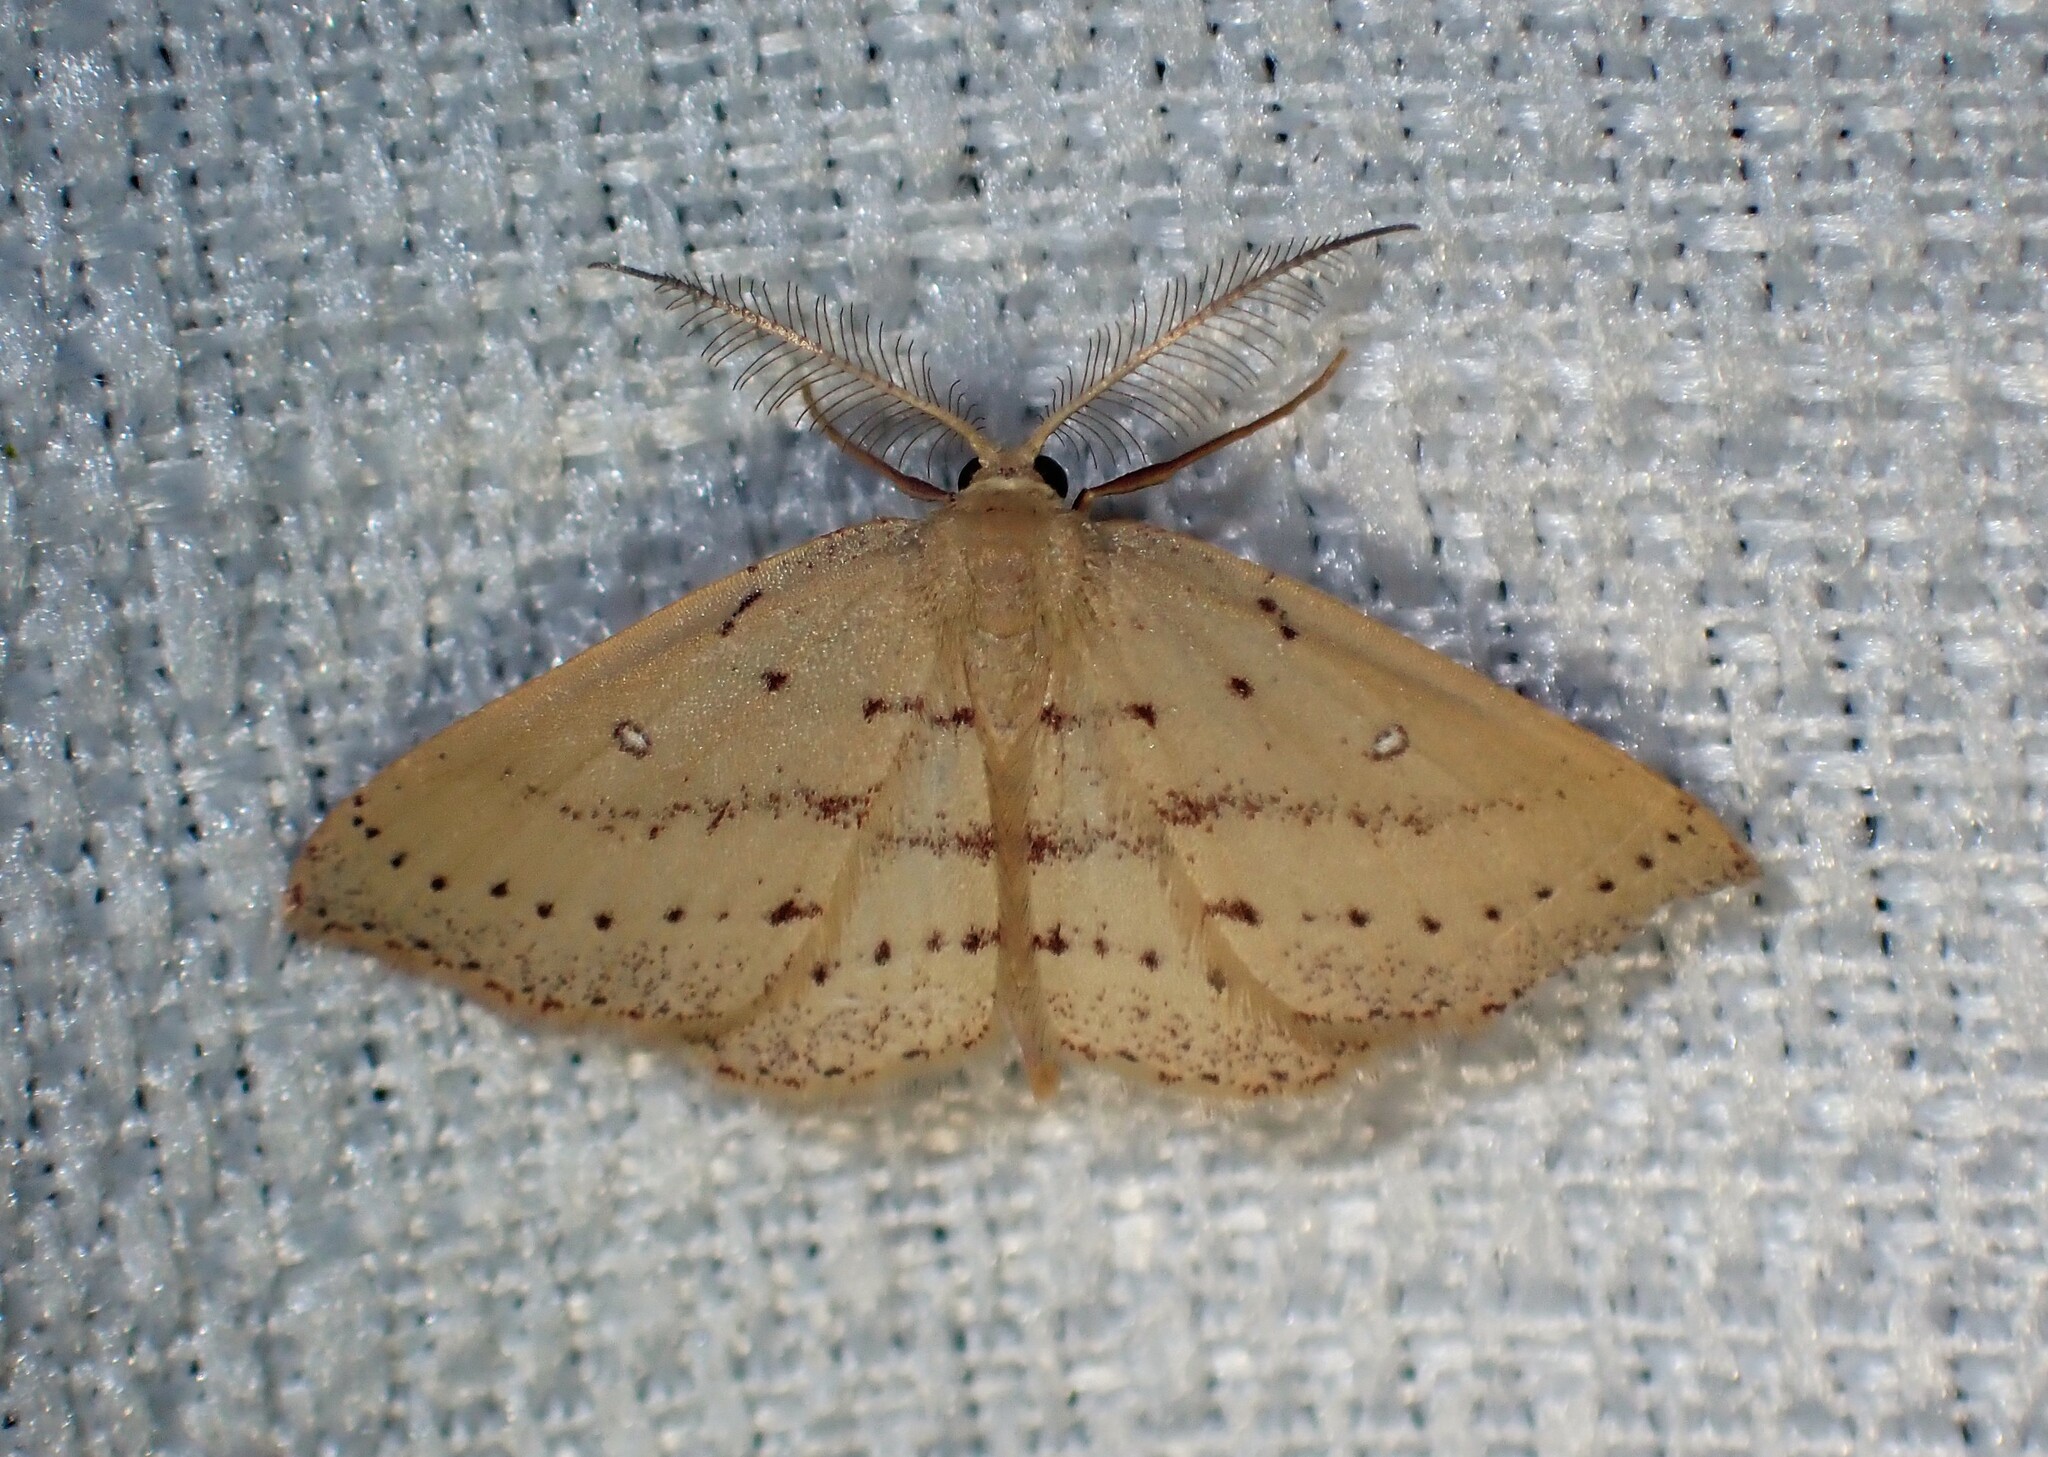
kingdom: Animalia
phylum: Arthropoda
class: Insecta
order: Lepidoptera
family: Geometridae
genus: Cyclophora
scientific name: Cyclophora azorensis
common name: Geometer moth
